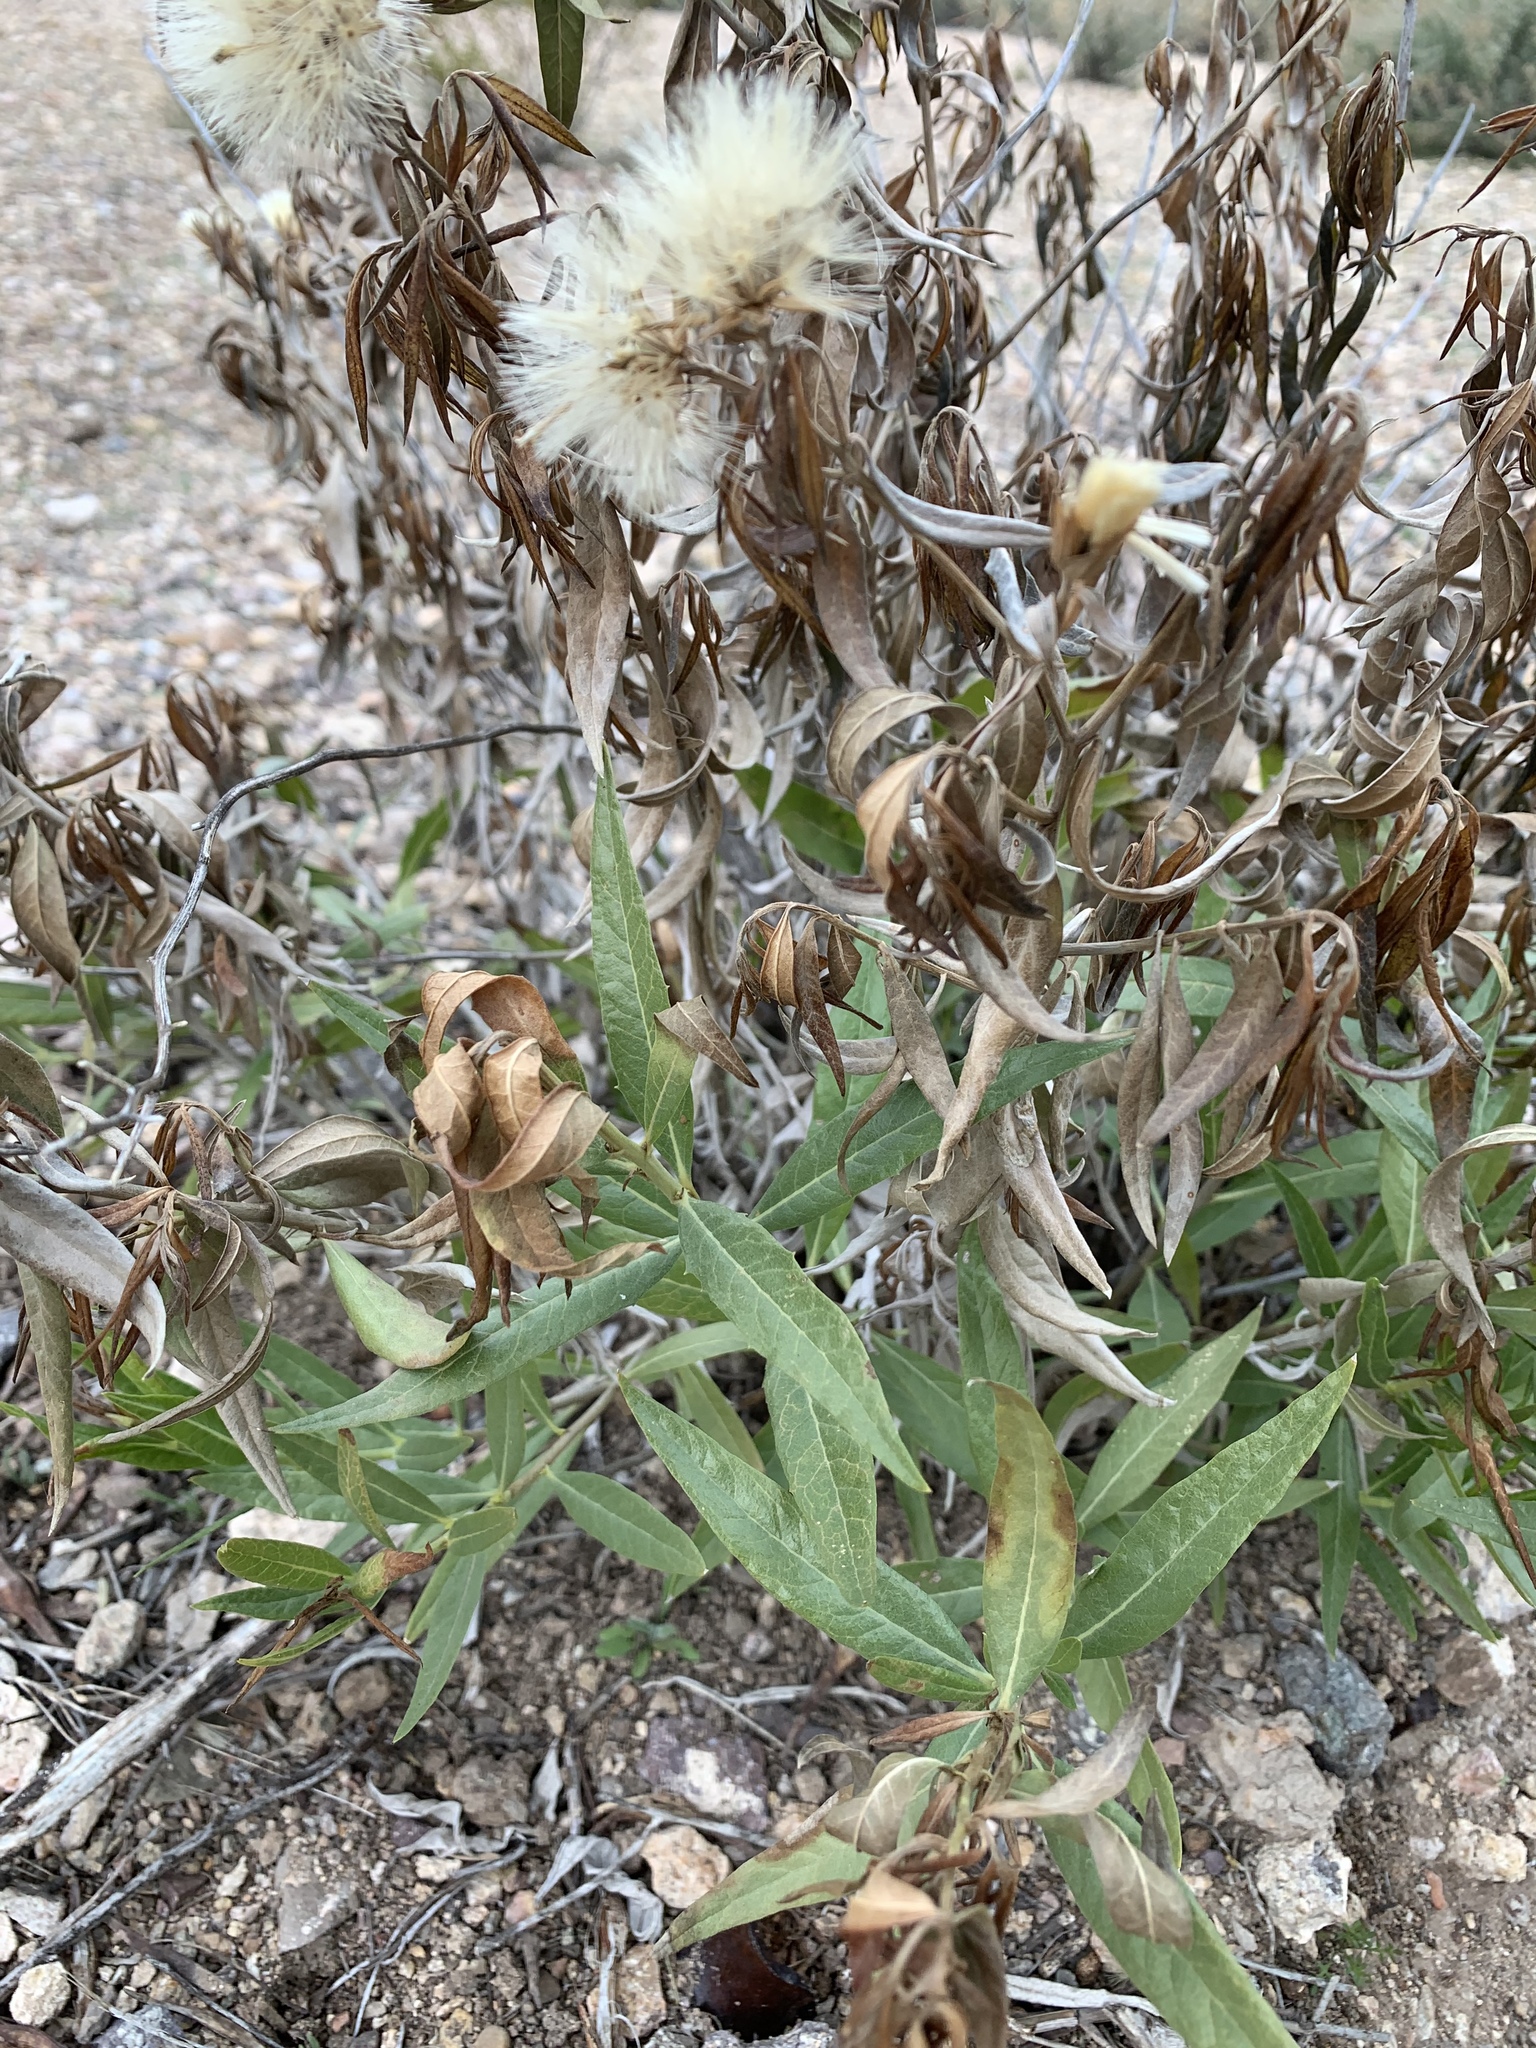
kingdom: Plantae
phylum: Tracheophyta
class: Magnoliopsida
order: Asterales
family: Asteraceae
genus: Trixis
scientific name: Trixis californica
